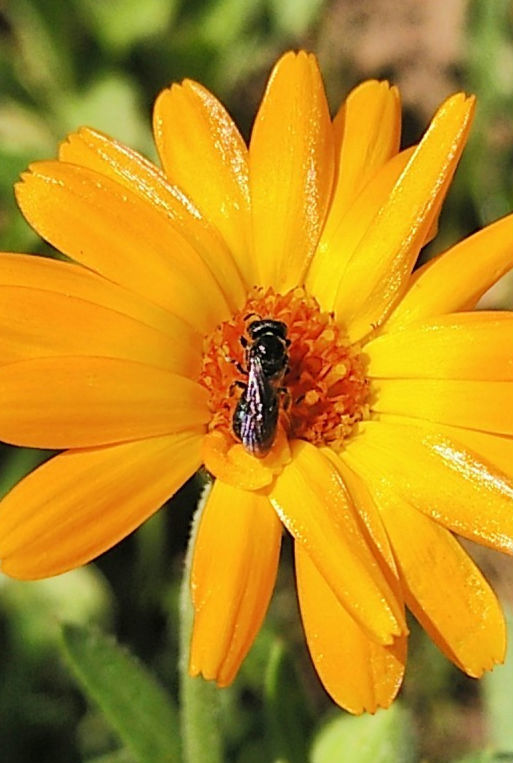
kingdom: Animalia
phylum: Arthropoda
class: Insecta
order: Hymenoptera
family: Apidae
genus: Ceratina
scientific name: Ceratina
